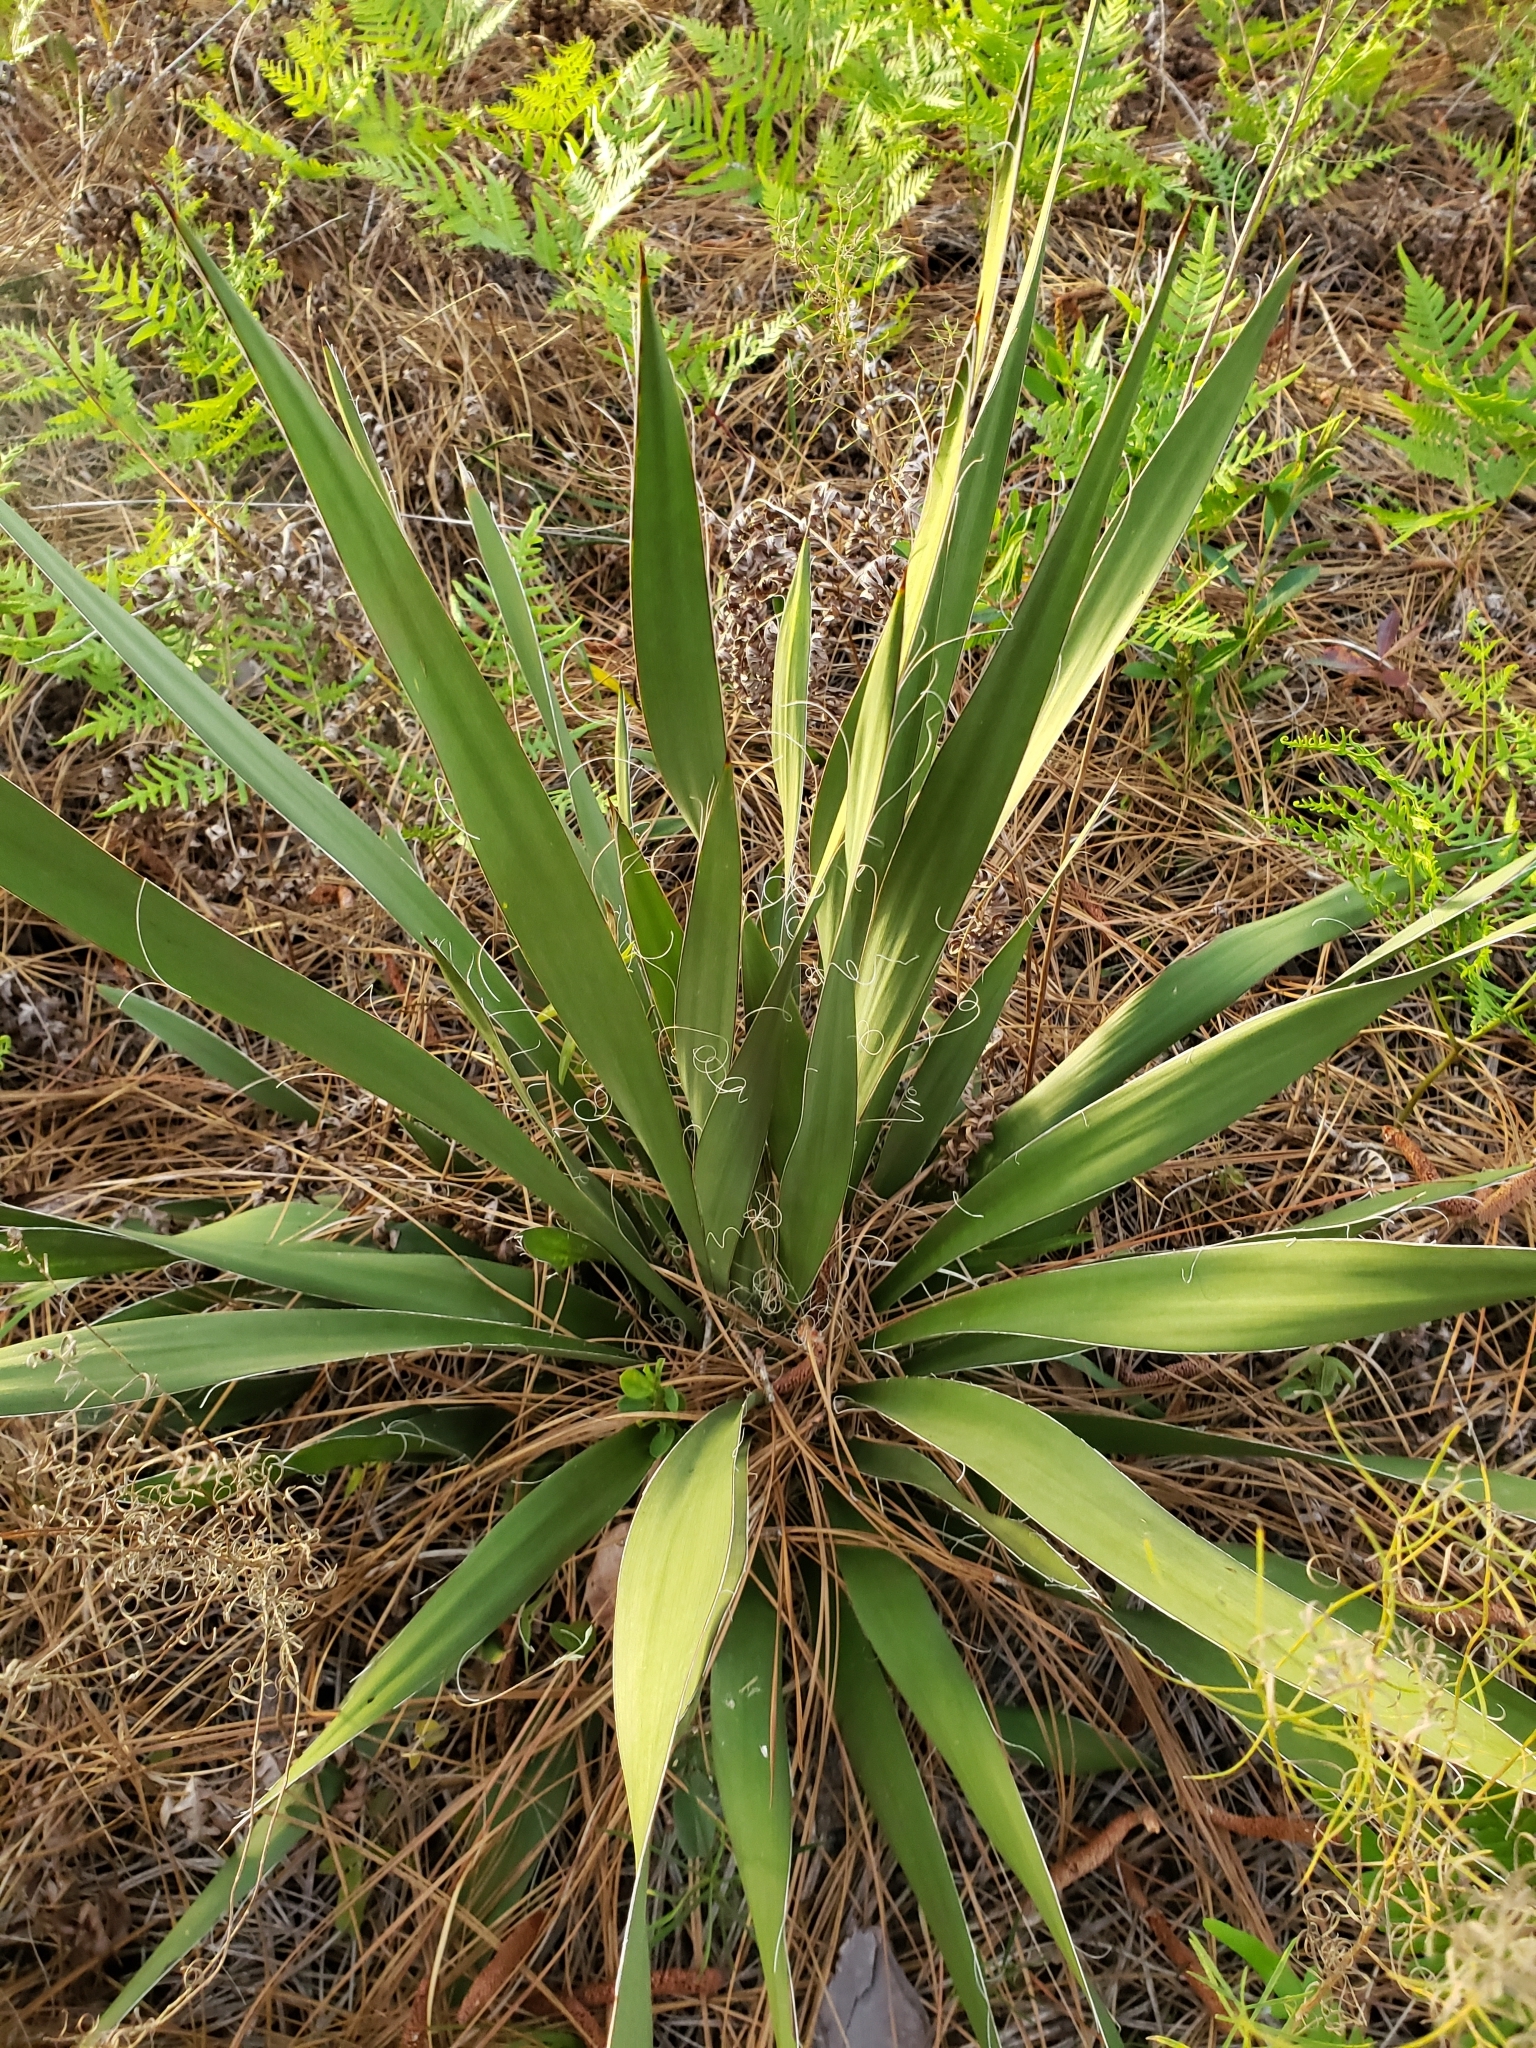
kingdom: Plantae
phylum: Tracheophyta
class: Liliopsida
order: Asparagales
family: Asparagaceae
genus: Yucca
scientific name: Yucca filamentosa
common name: Adam's-needle
